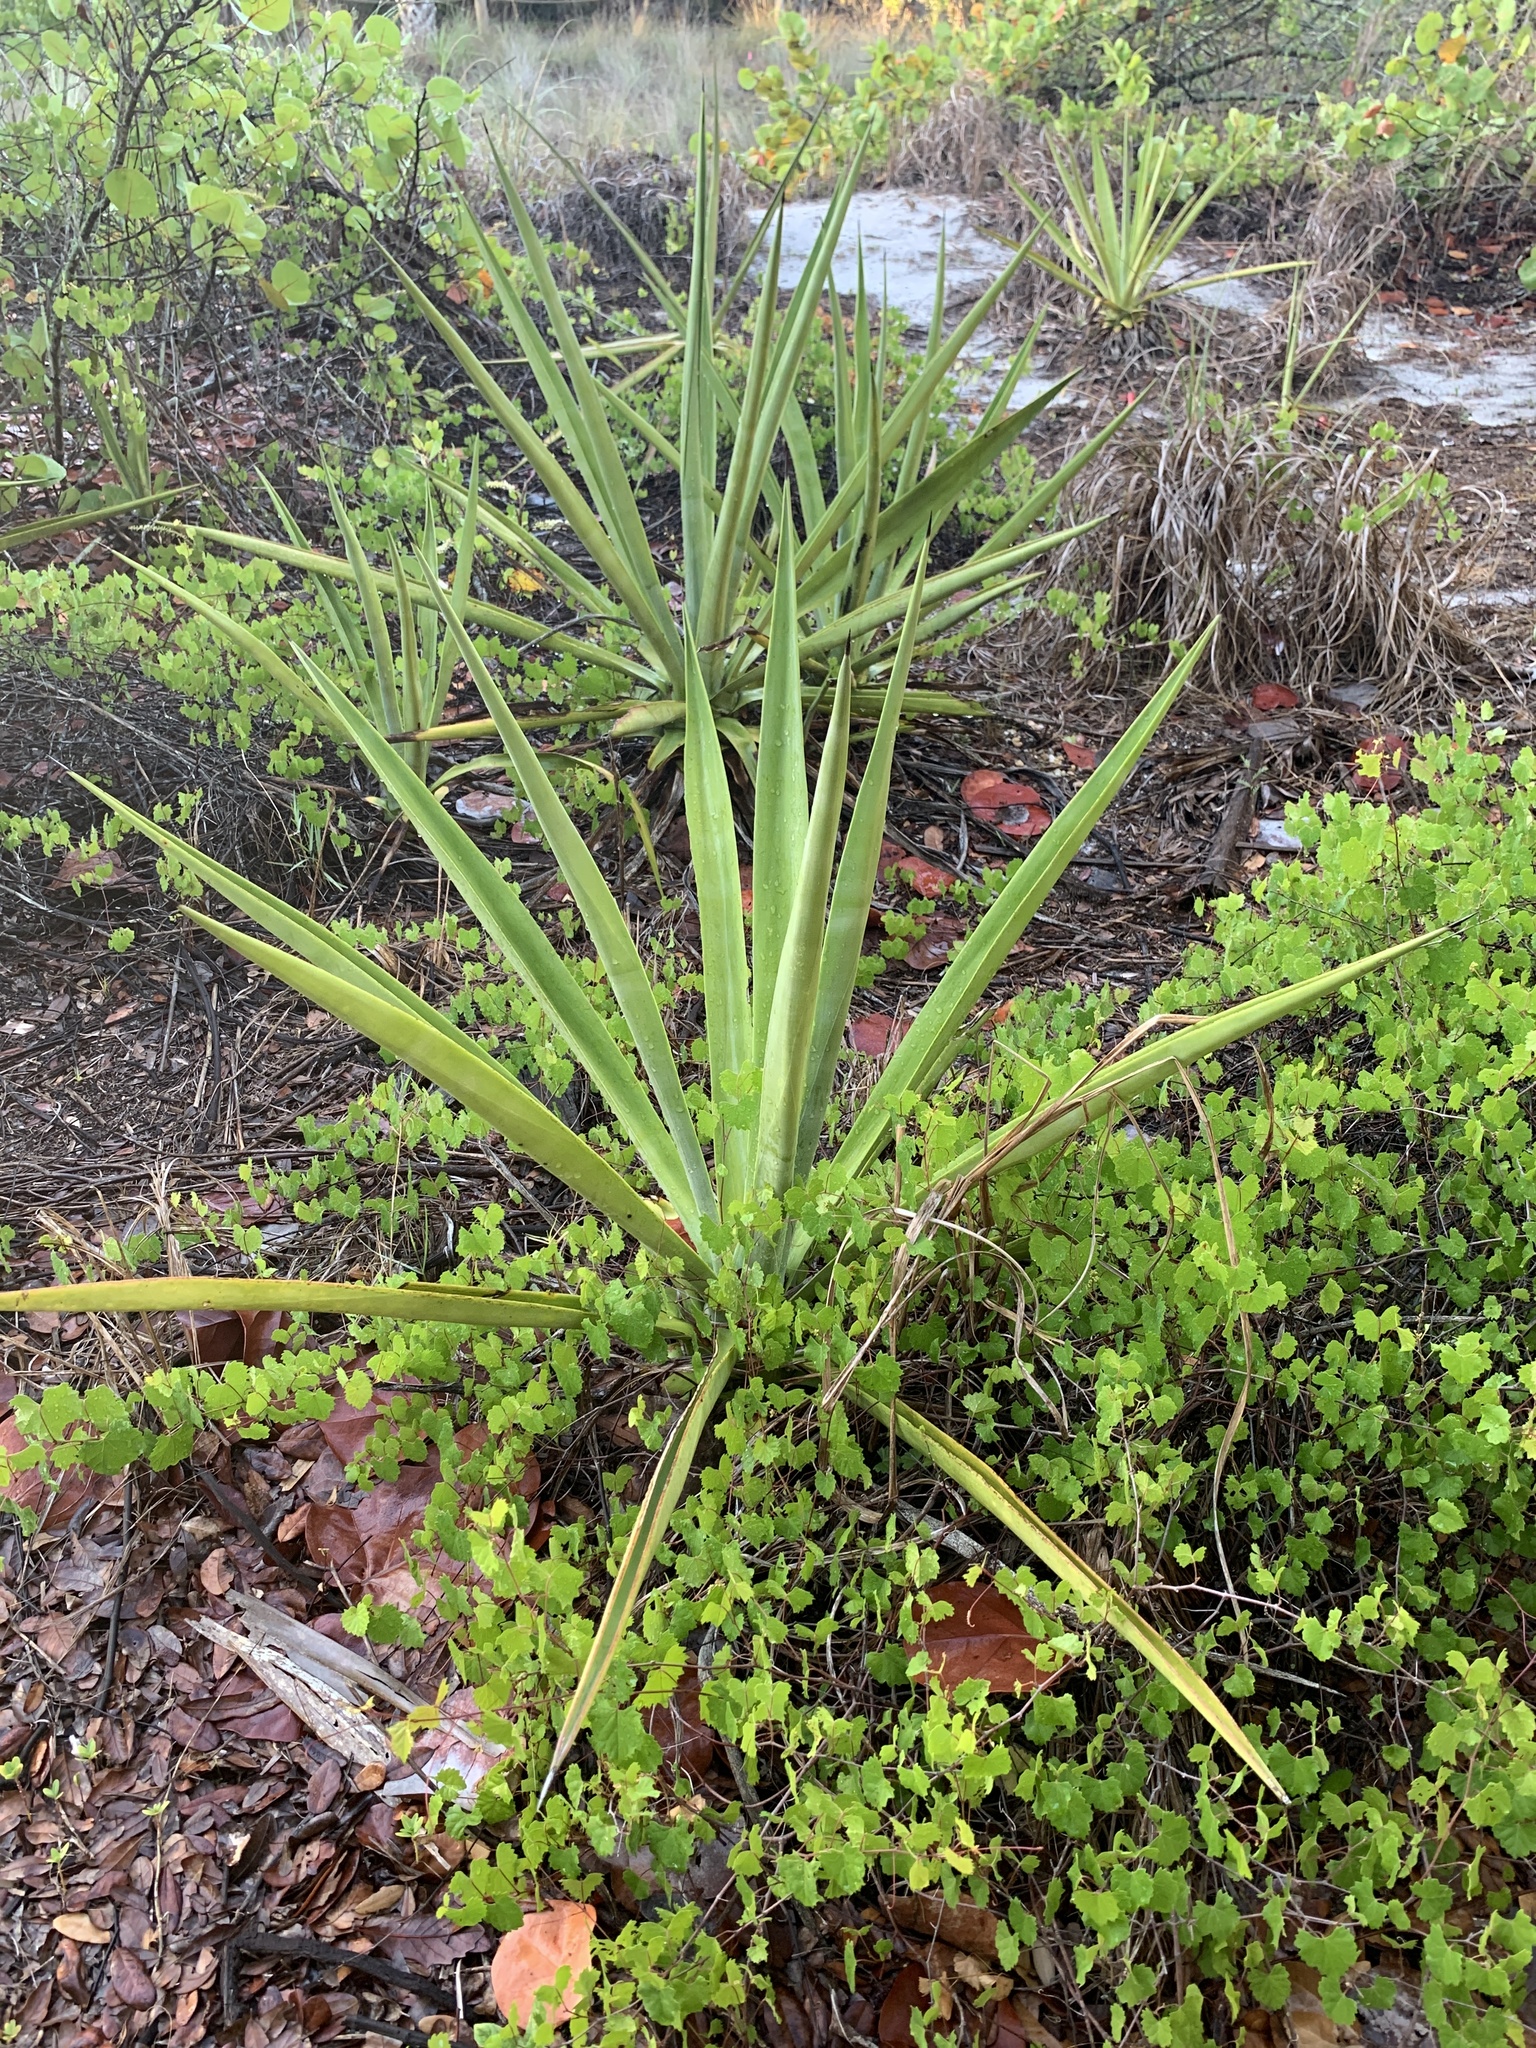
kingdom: Plantae
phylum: Tracheophyta
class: Liliopsida
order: Asparagales
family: Asparagaceae
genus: Agave
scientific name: Agave decipiens
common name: False sisal
